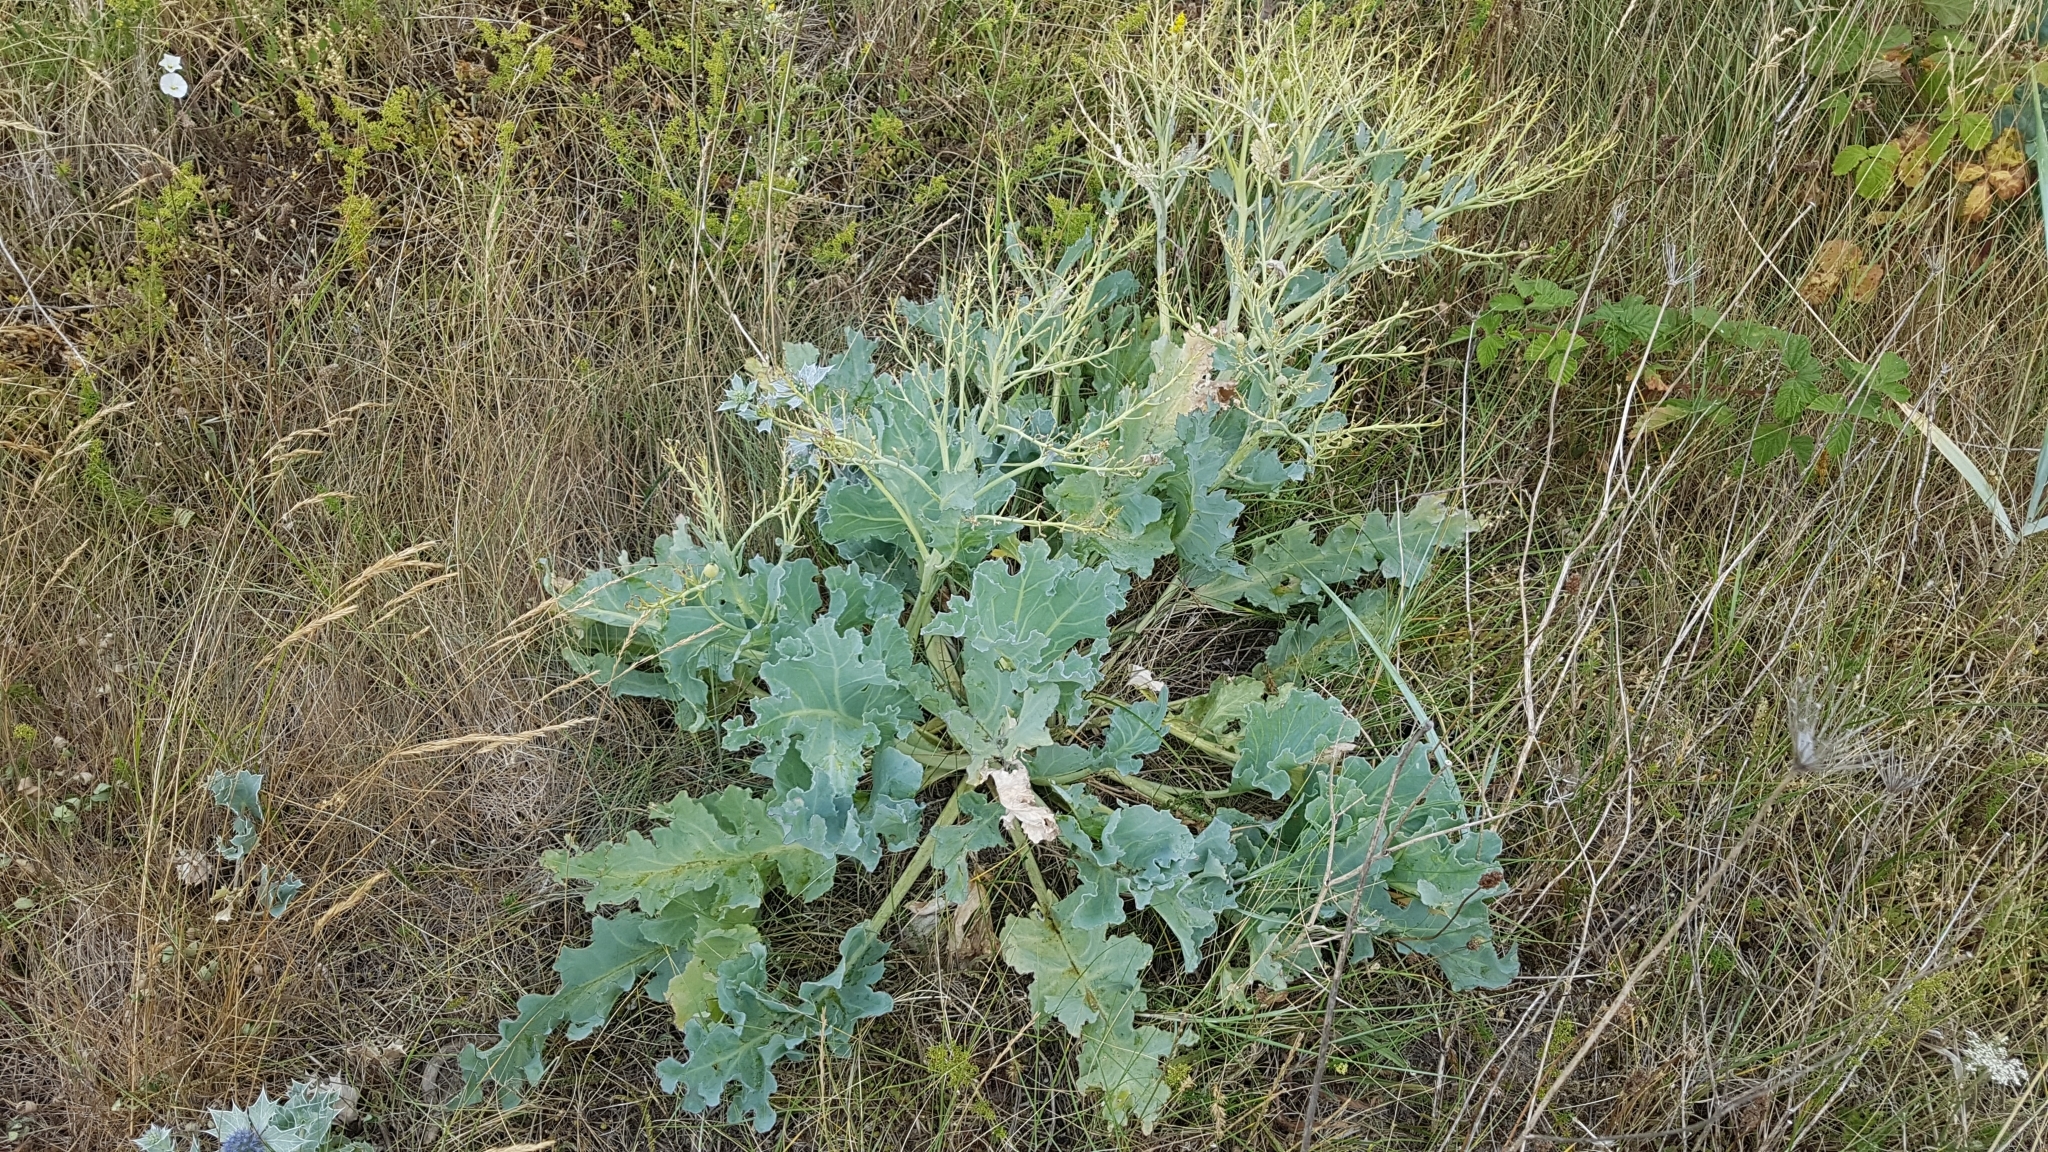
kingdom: Plantae
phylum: Tracheophyta
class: Magnoliopsida
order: Brassicales
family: Brassicaceae
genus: Crambe
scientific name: Crambe maritima
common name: Sea-kale
